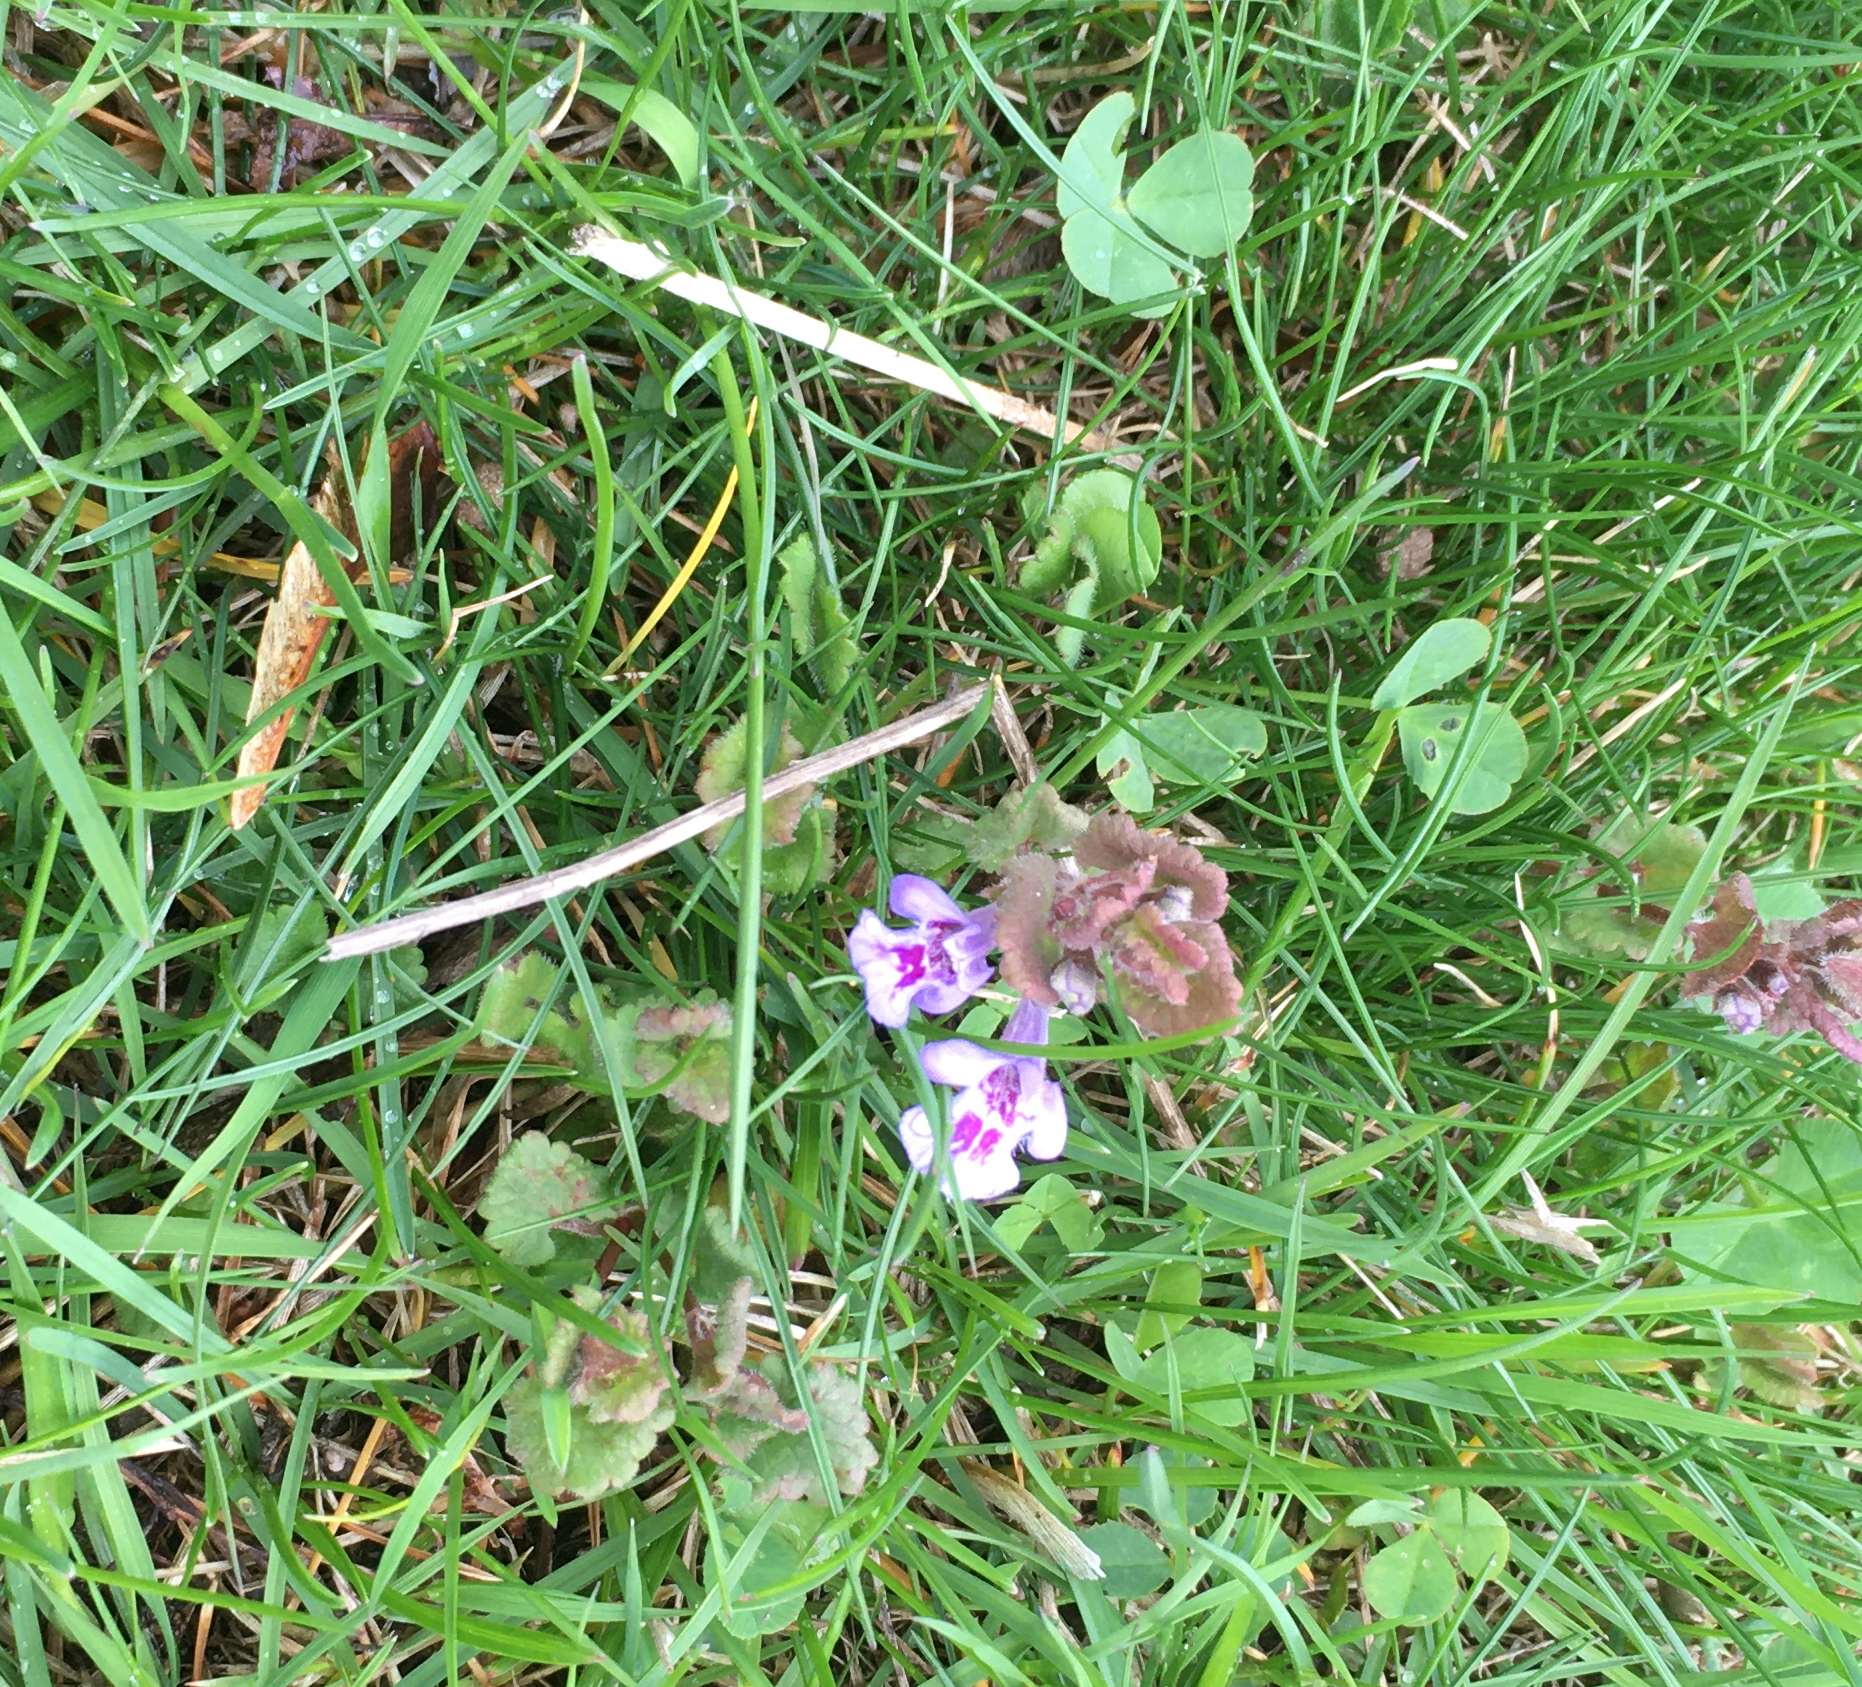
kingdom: Plantae
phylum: Tracheophyta
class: Magnoliopsida
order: Lamiales
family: Lamiaceae
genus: Glechoma
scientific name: Glechoma hederacea
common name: Ground ivy
